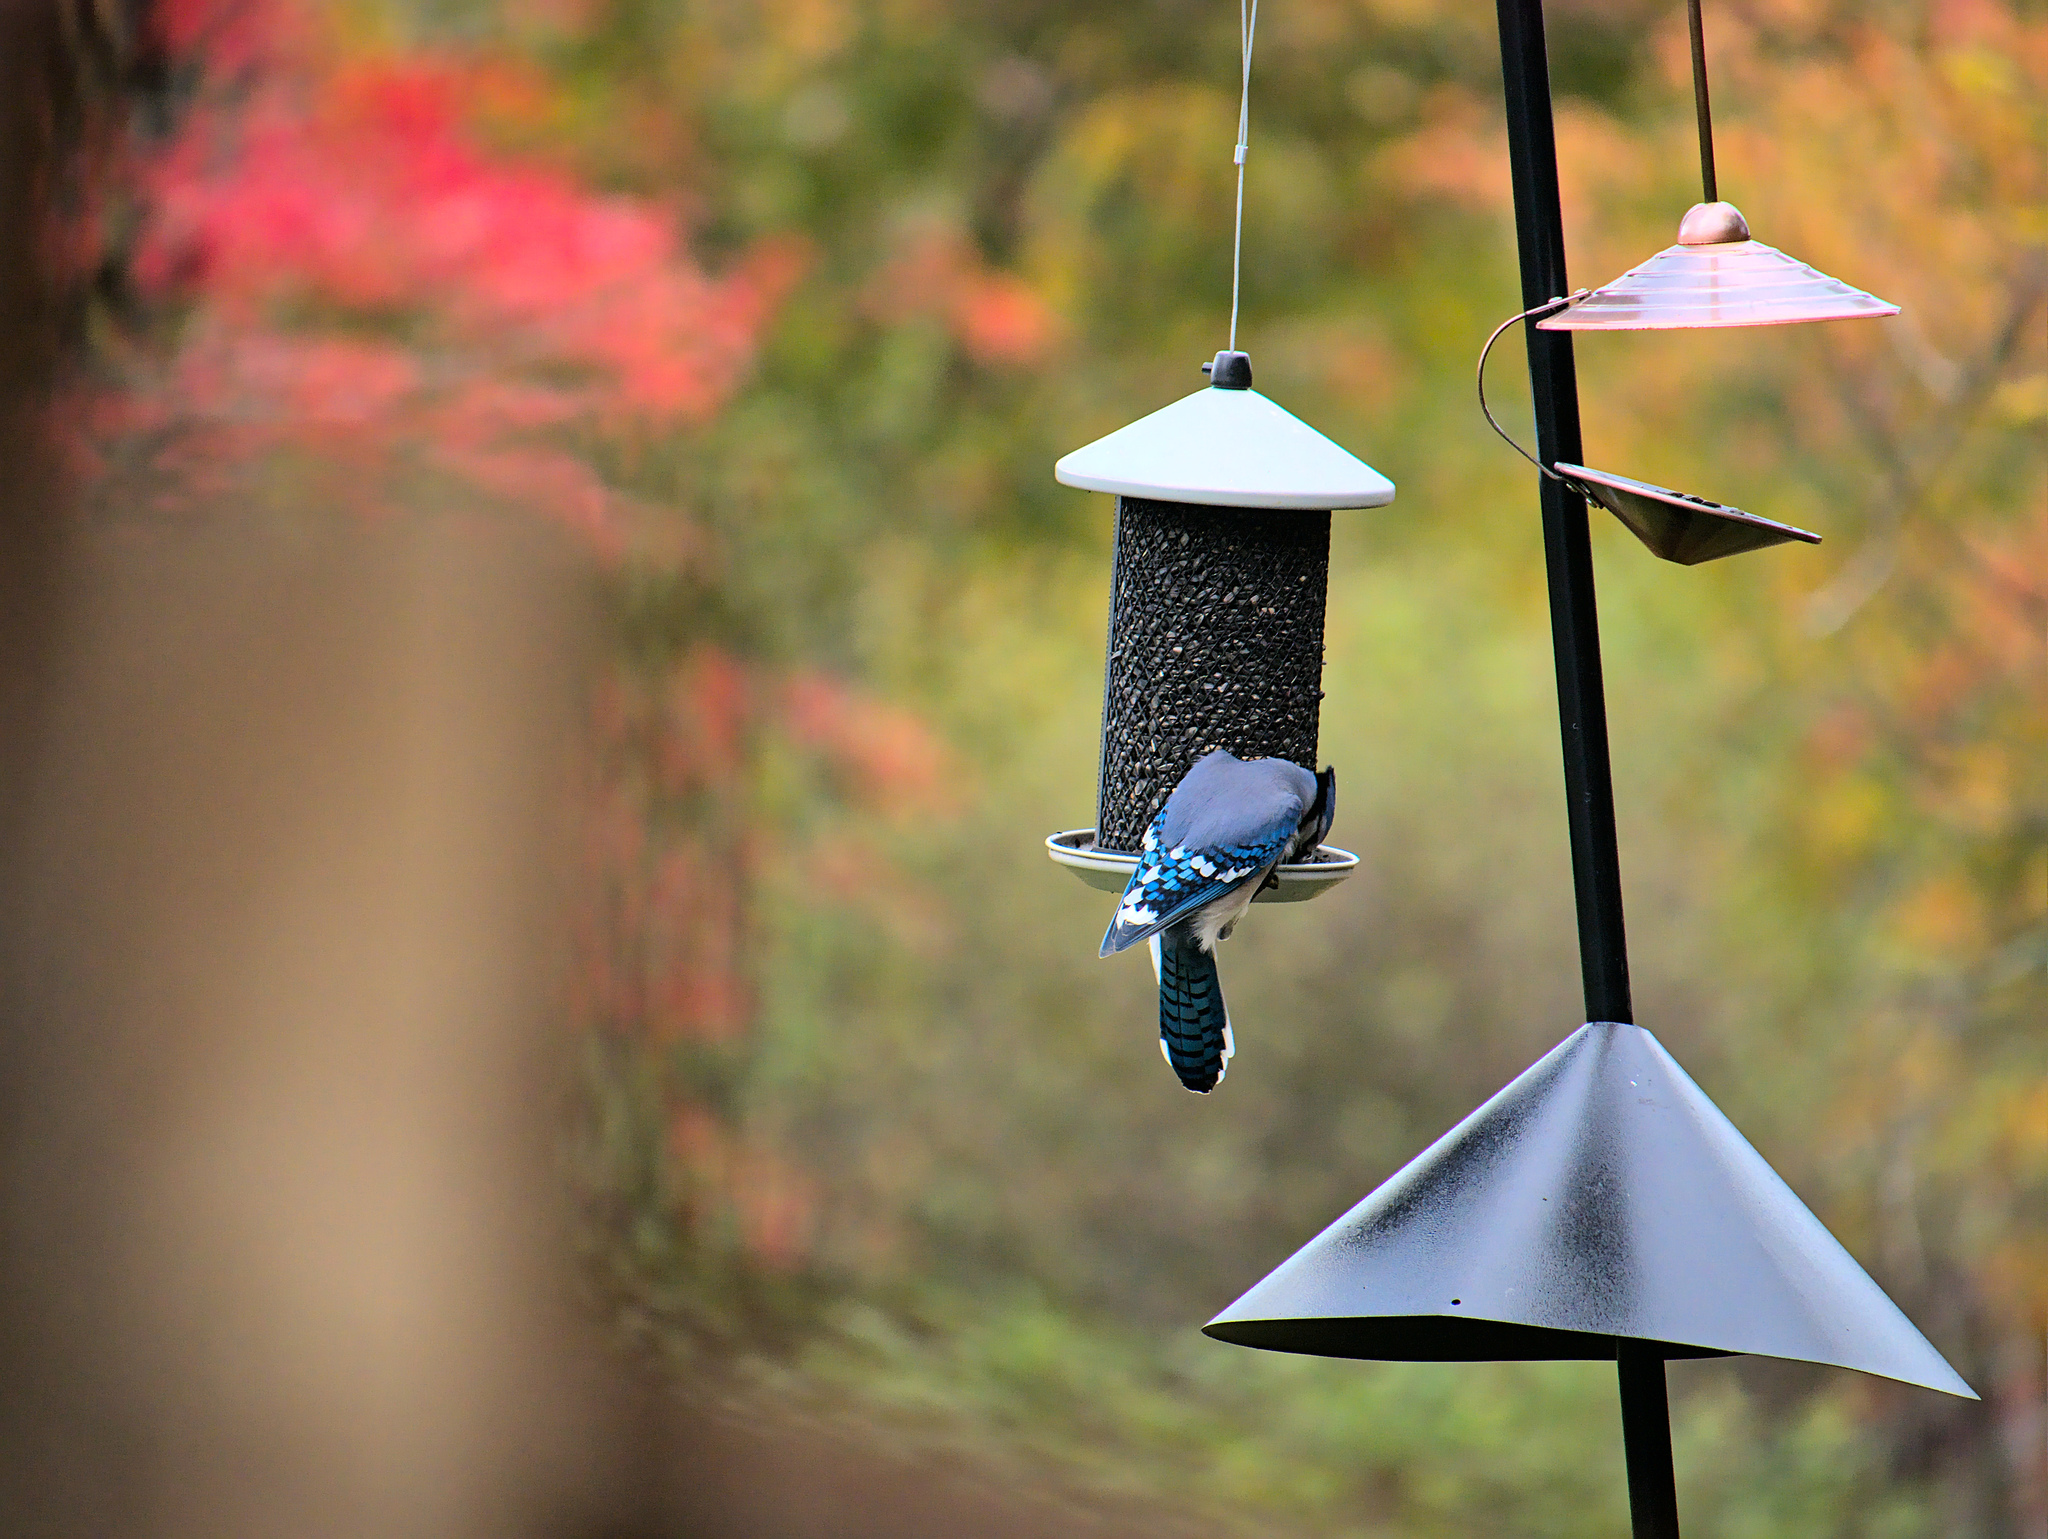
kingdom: Animalia
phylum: Chordata
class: Aves
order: Passeriformes
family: Corvidae
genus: Cyanocitta
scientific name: Cyanocitta cristata
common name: Blue jay
